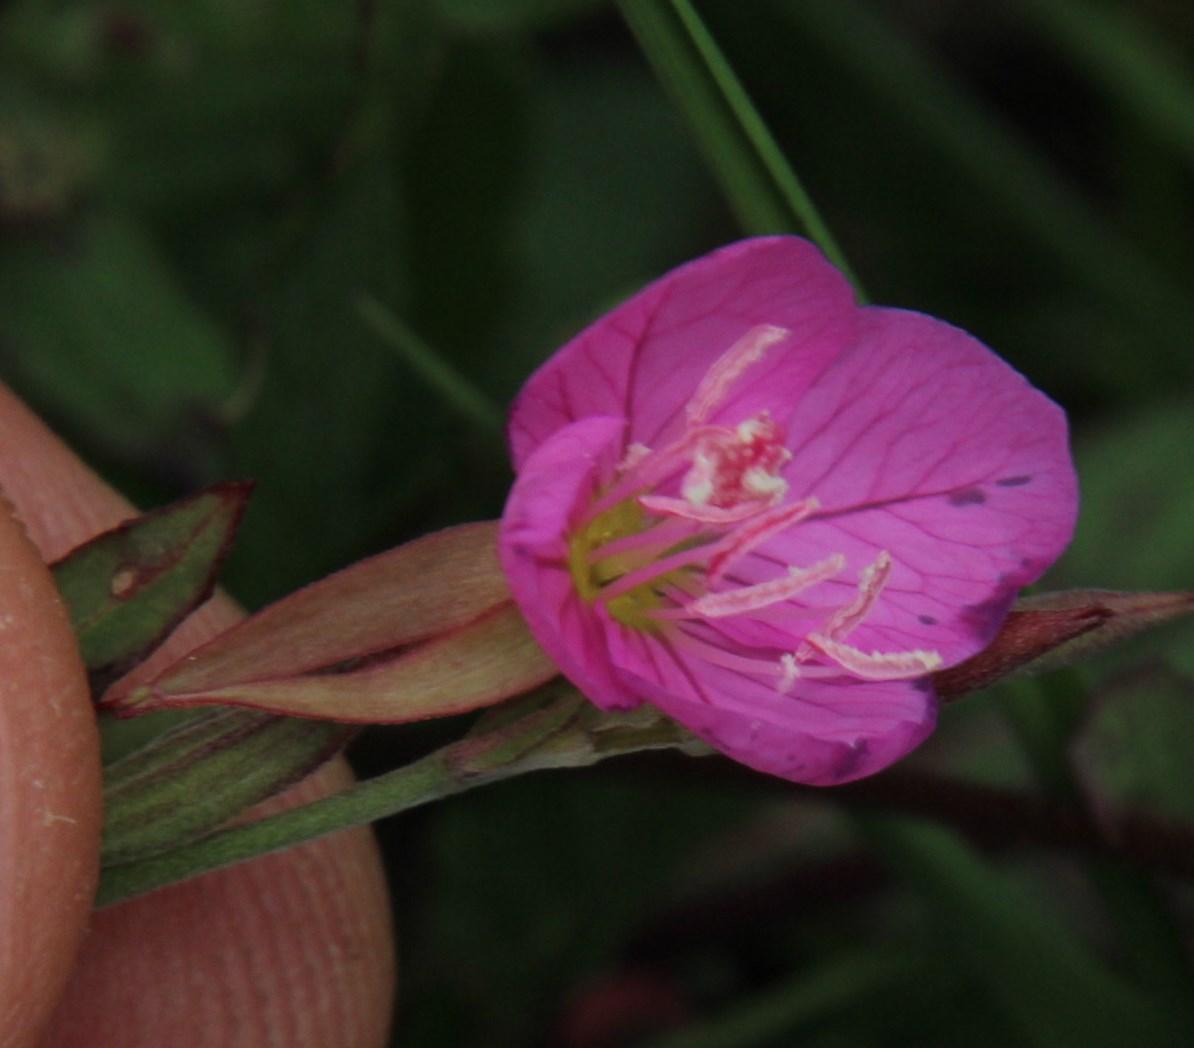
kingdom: Plantae
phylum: Tracheophyta
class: Magnoliopsida
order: Myrtales
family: Onagraceae
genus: Oenothera
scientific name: Oenothera rosea
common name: Rosy evening-primrose
